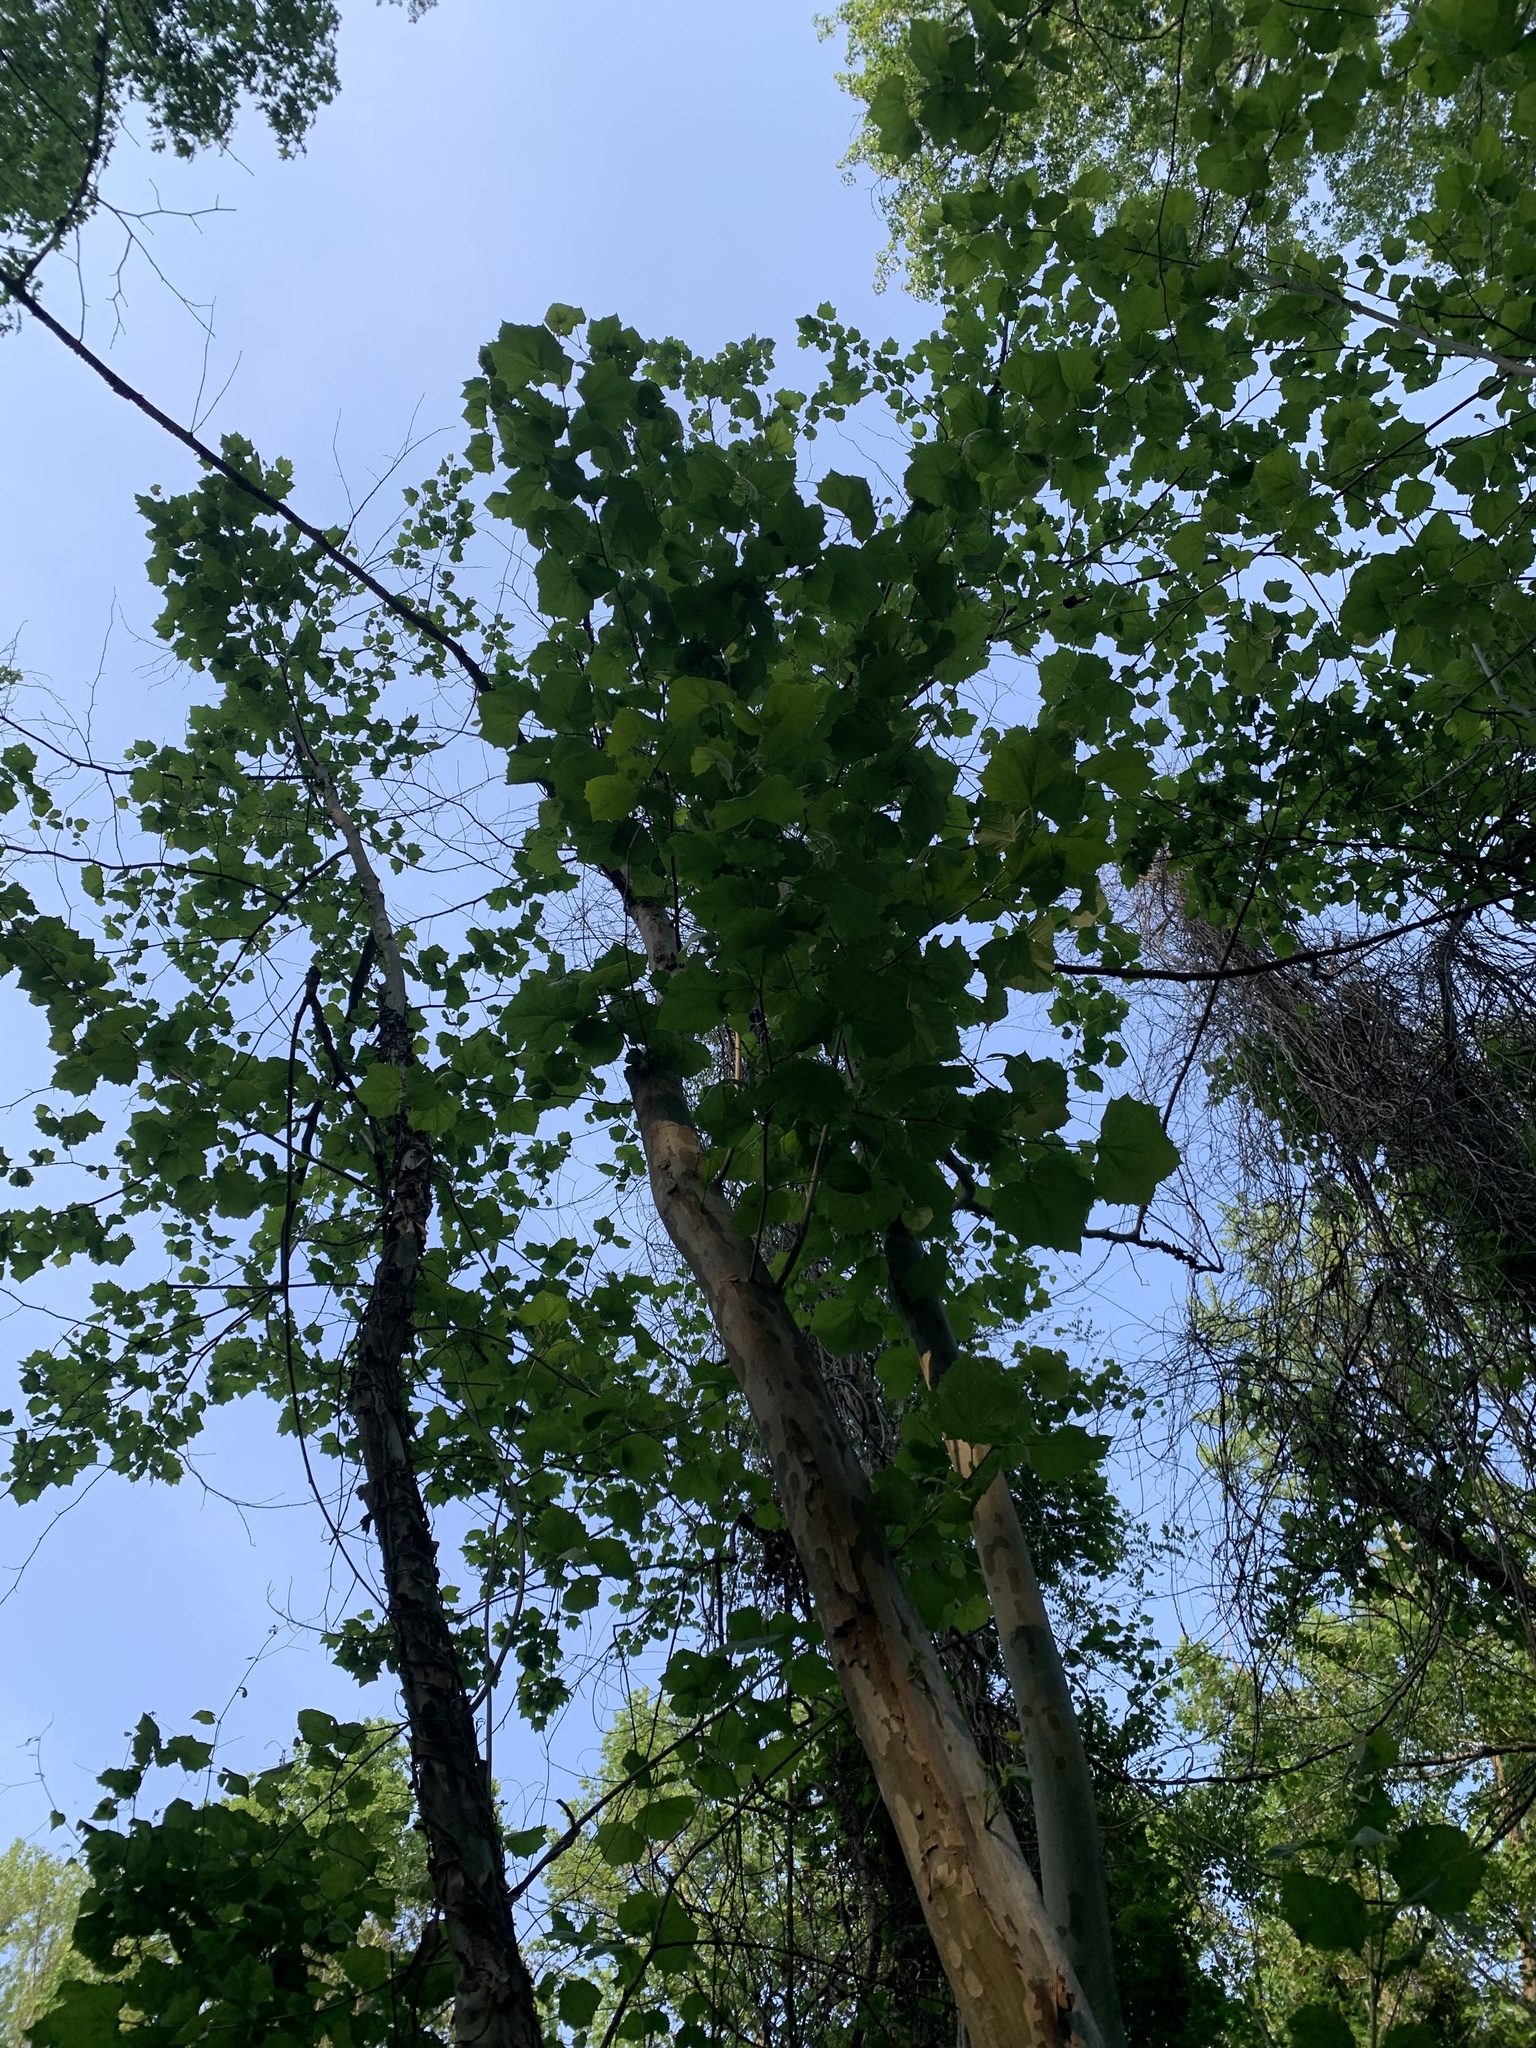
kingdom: Plantae
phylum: Tracheophyta
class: Magnoliopsida
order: Proteales
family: Platanaceae
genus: Platanus
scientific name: Platanus occidentalis
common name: American sycamore
